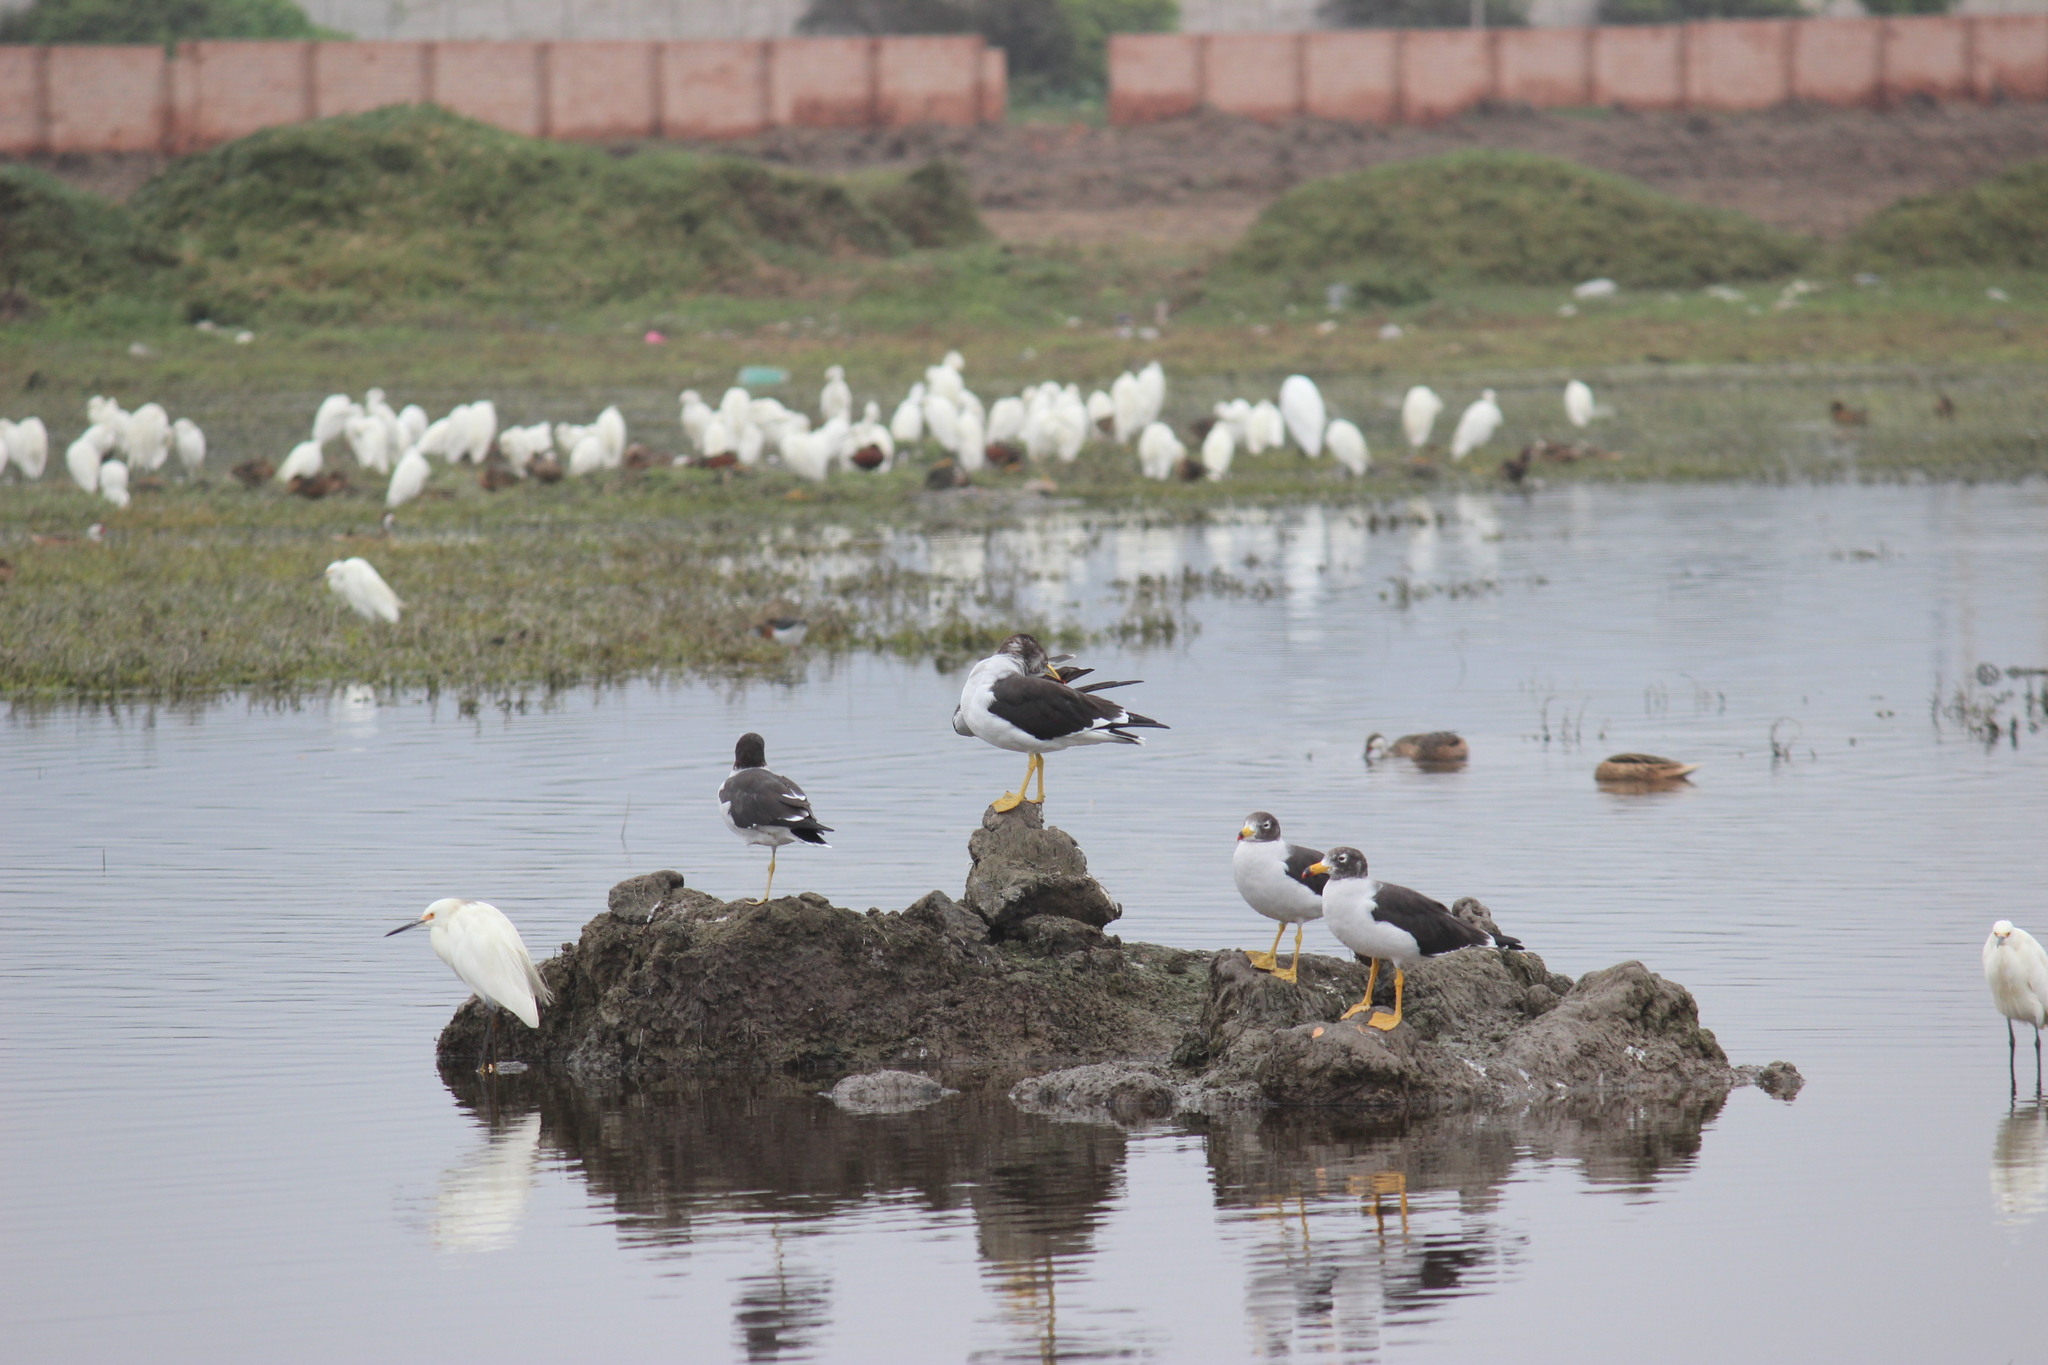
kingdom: Animalia
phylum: Chordata
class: Aves
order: Charadriiformes
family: Laridae
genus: Larus
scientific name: Larus belcheri
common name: Belcher's gull
